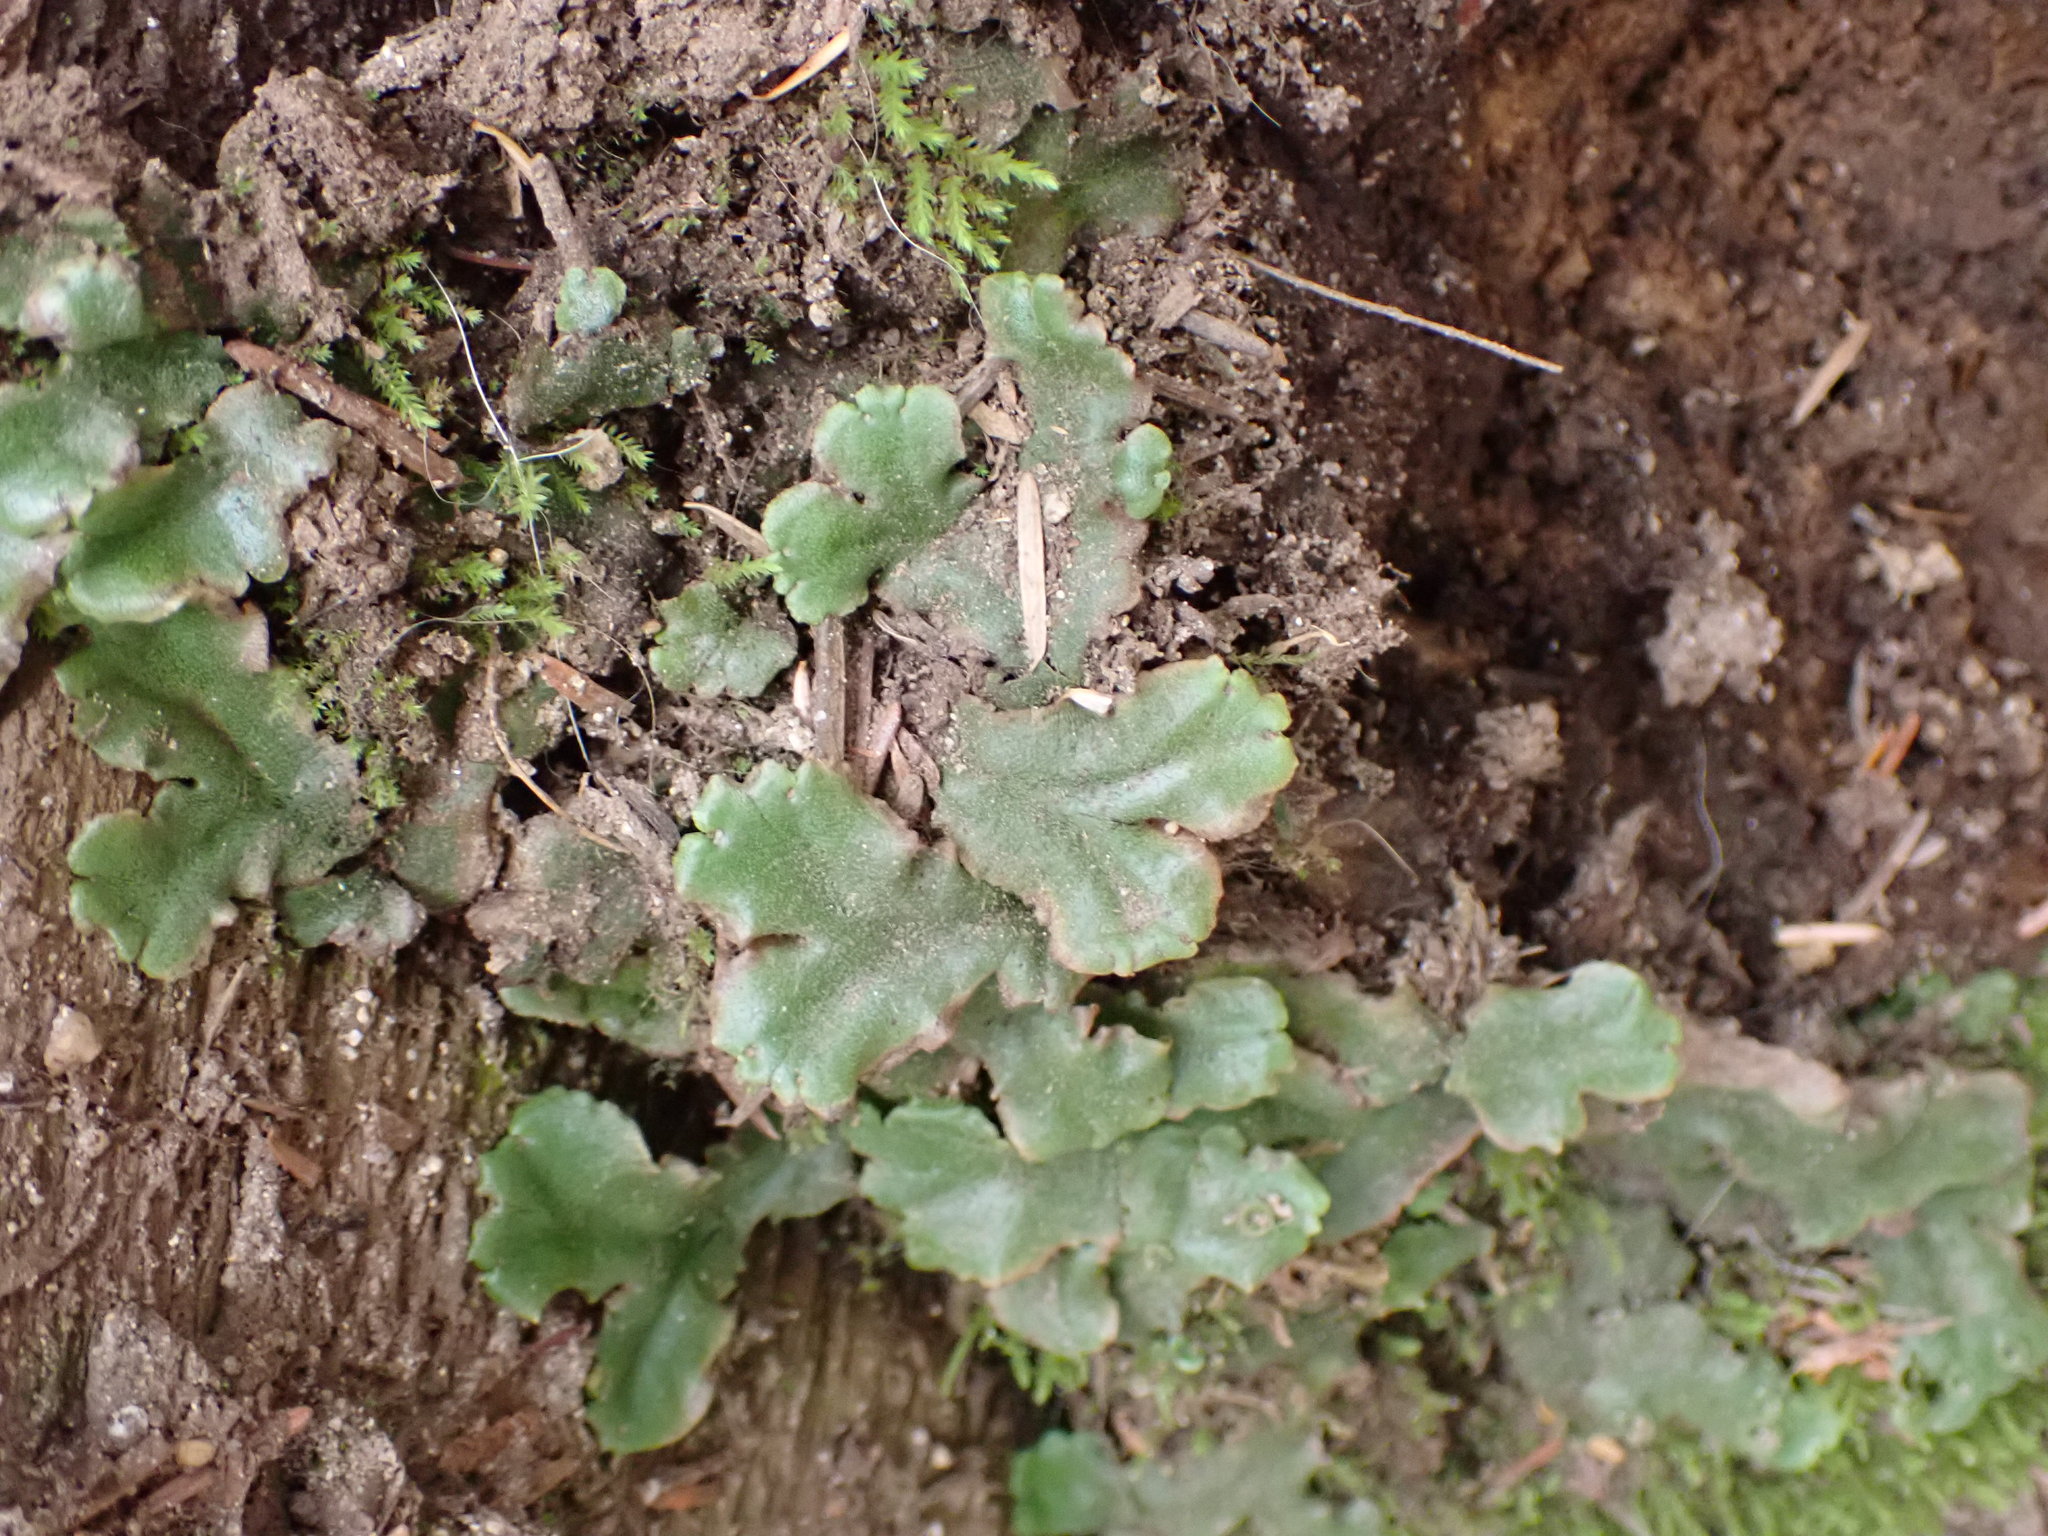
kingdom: Plantae
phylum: Marchantiophyta
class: Marchantiopsida
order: Marchantiales
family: Marchantiaceae
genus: Marchantia
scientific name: Marchantia polymorpha
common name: Common liverwort
